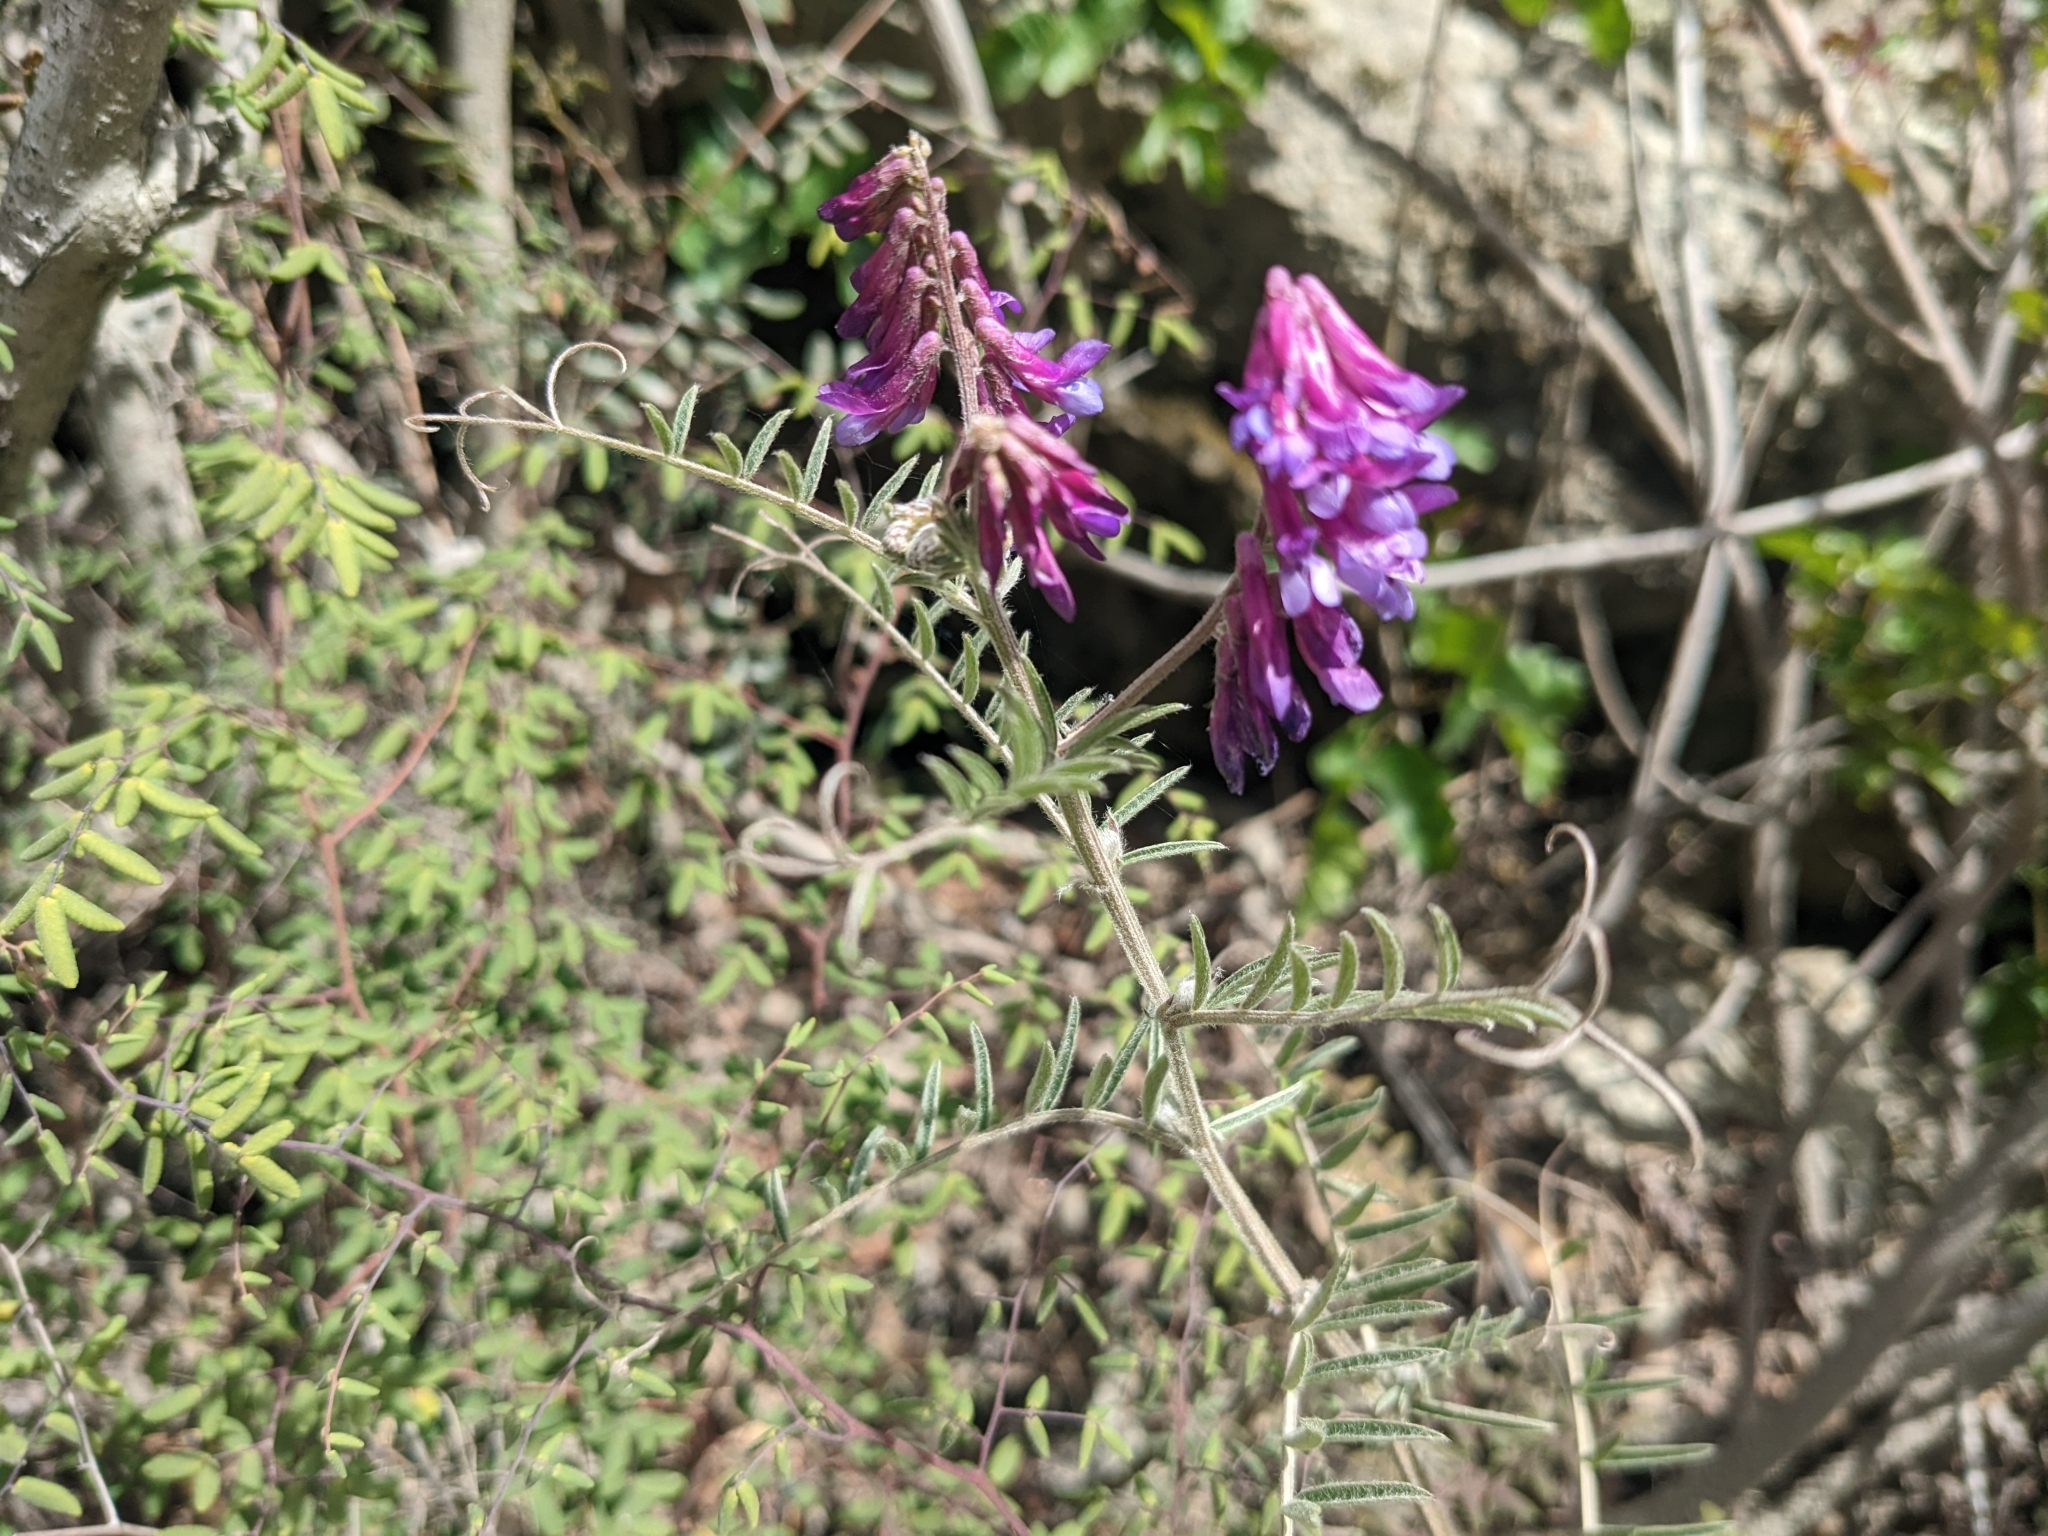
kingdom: Plantae
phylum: Tracheophyta
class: Magnoliopsida
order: Fabales
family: Fabaceae
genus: Vicia
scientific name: Vicia villosa
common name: Fodder vetch
